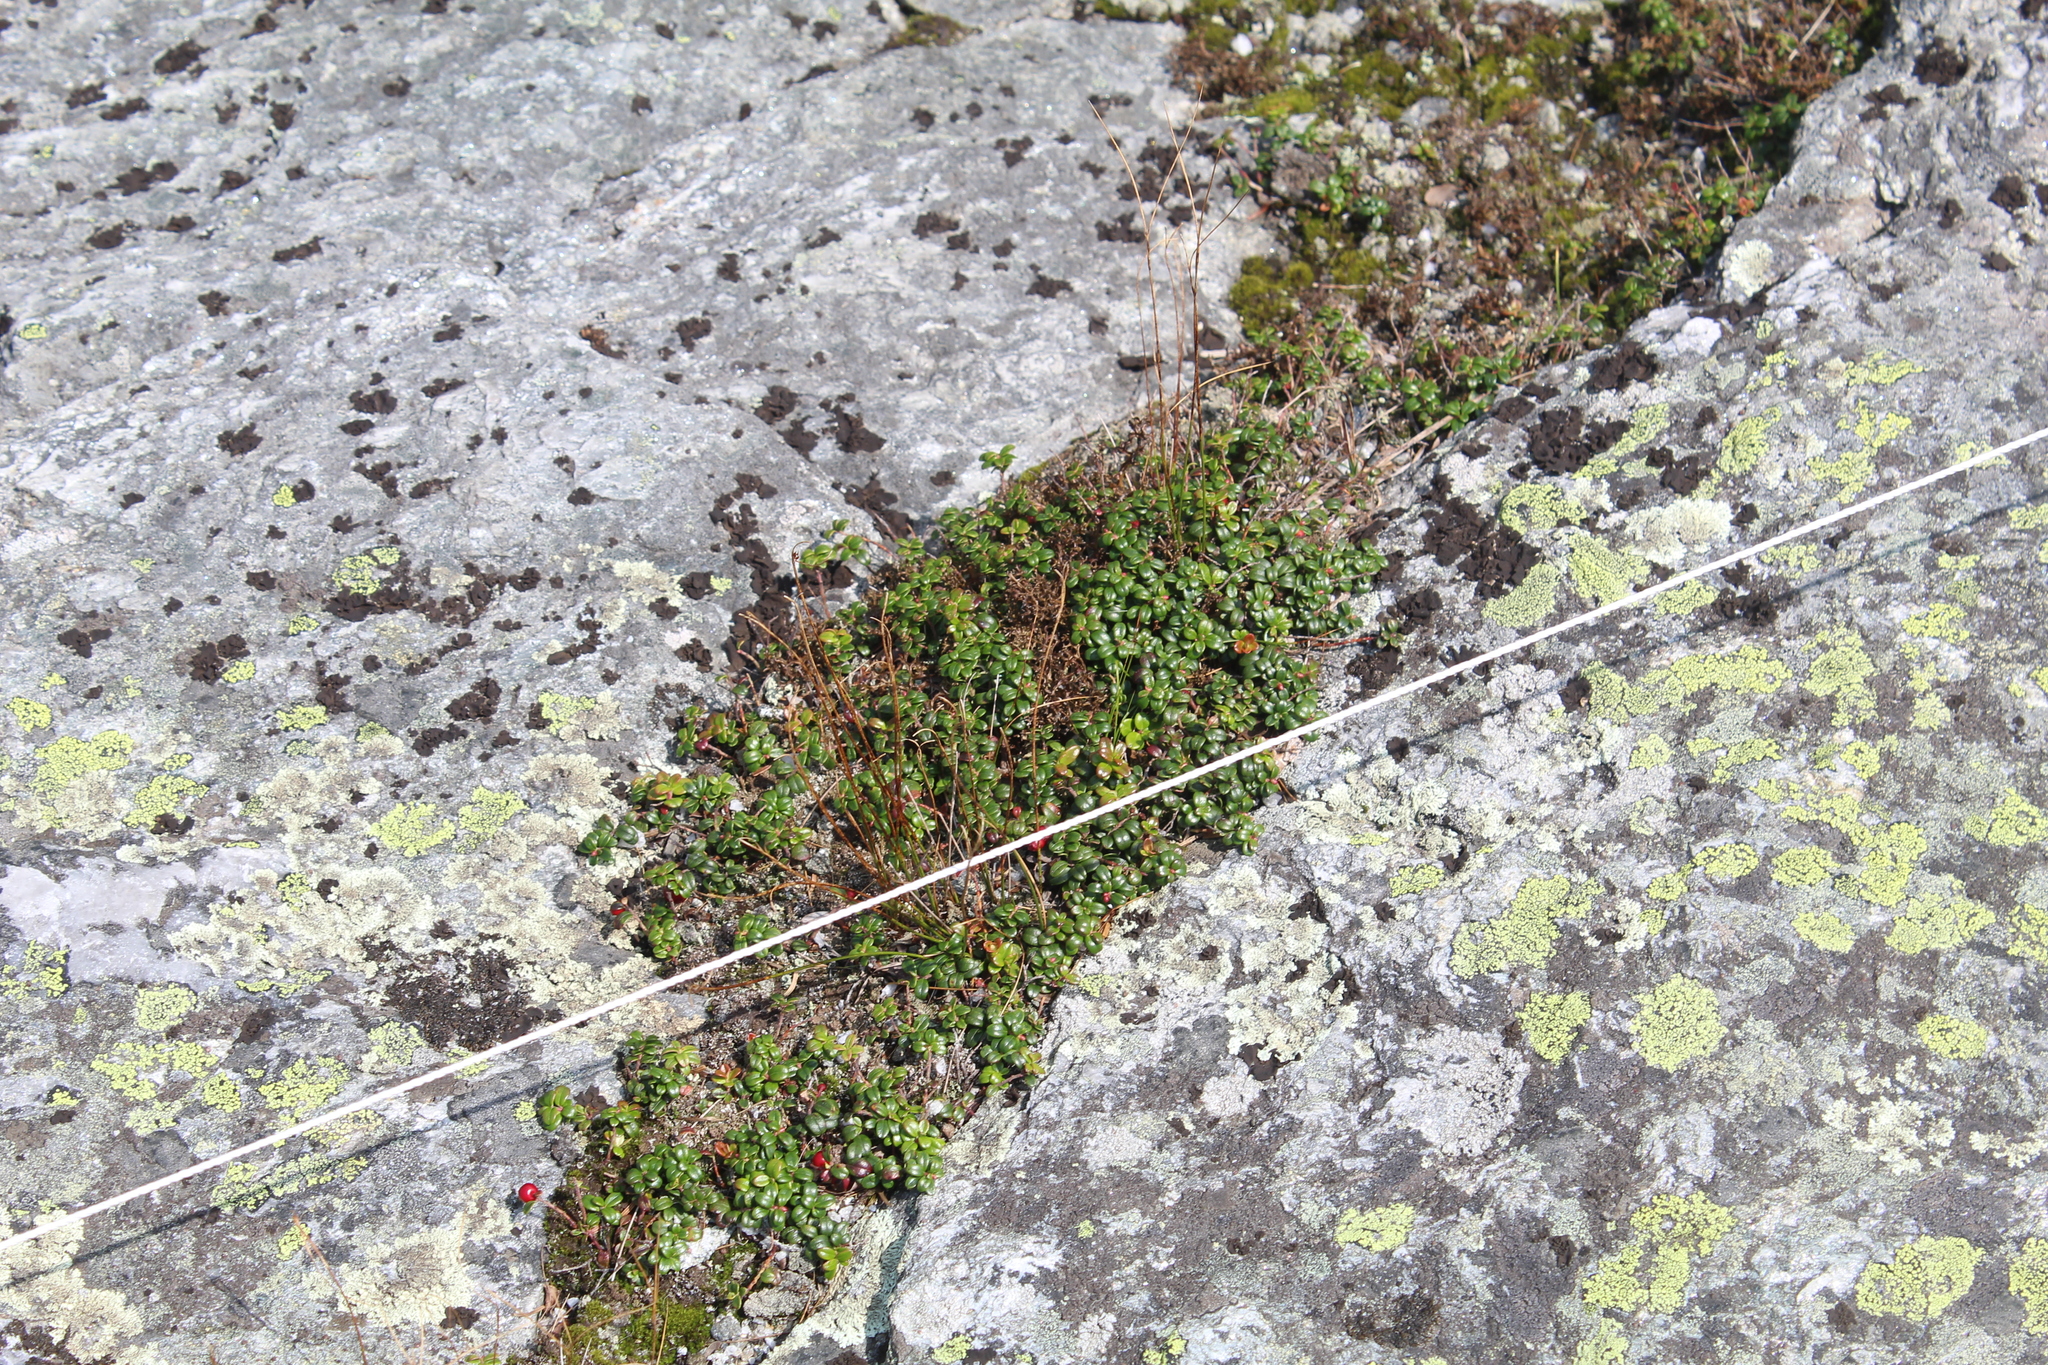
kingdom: Plantae
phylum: Tracheophyta
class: Magnoliopsida
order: Ericales
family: Ericaceae
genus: Vaccinium
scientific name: Vaccinium vitis-idaea
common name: Cowberry
